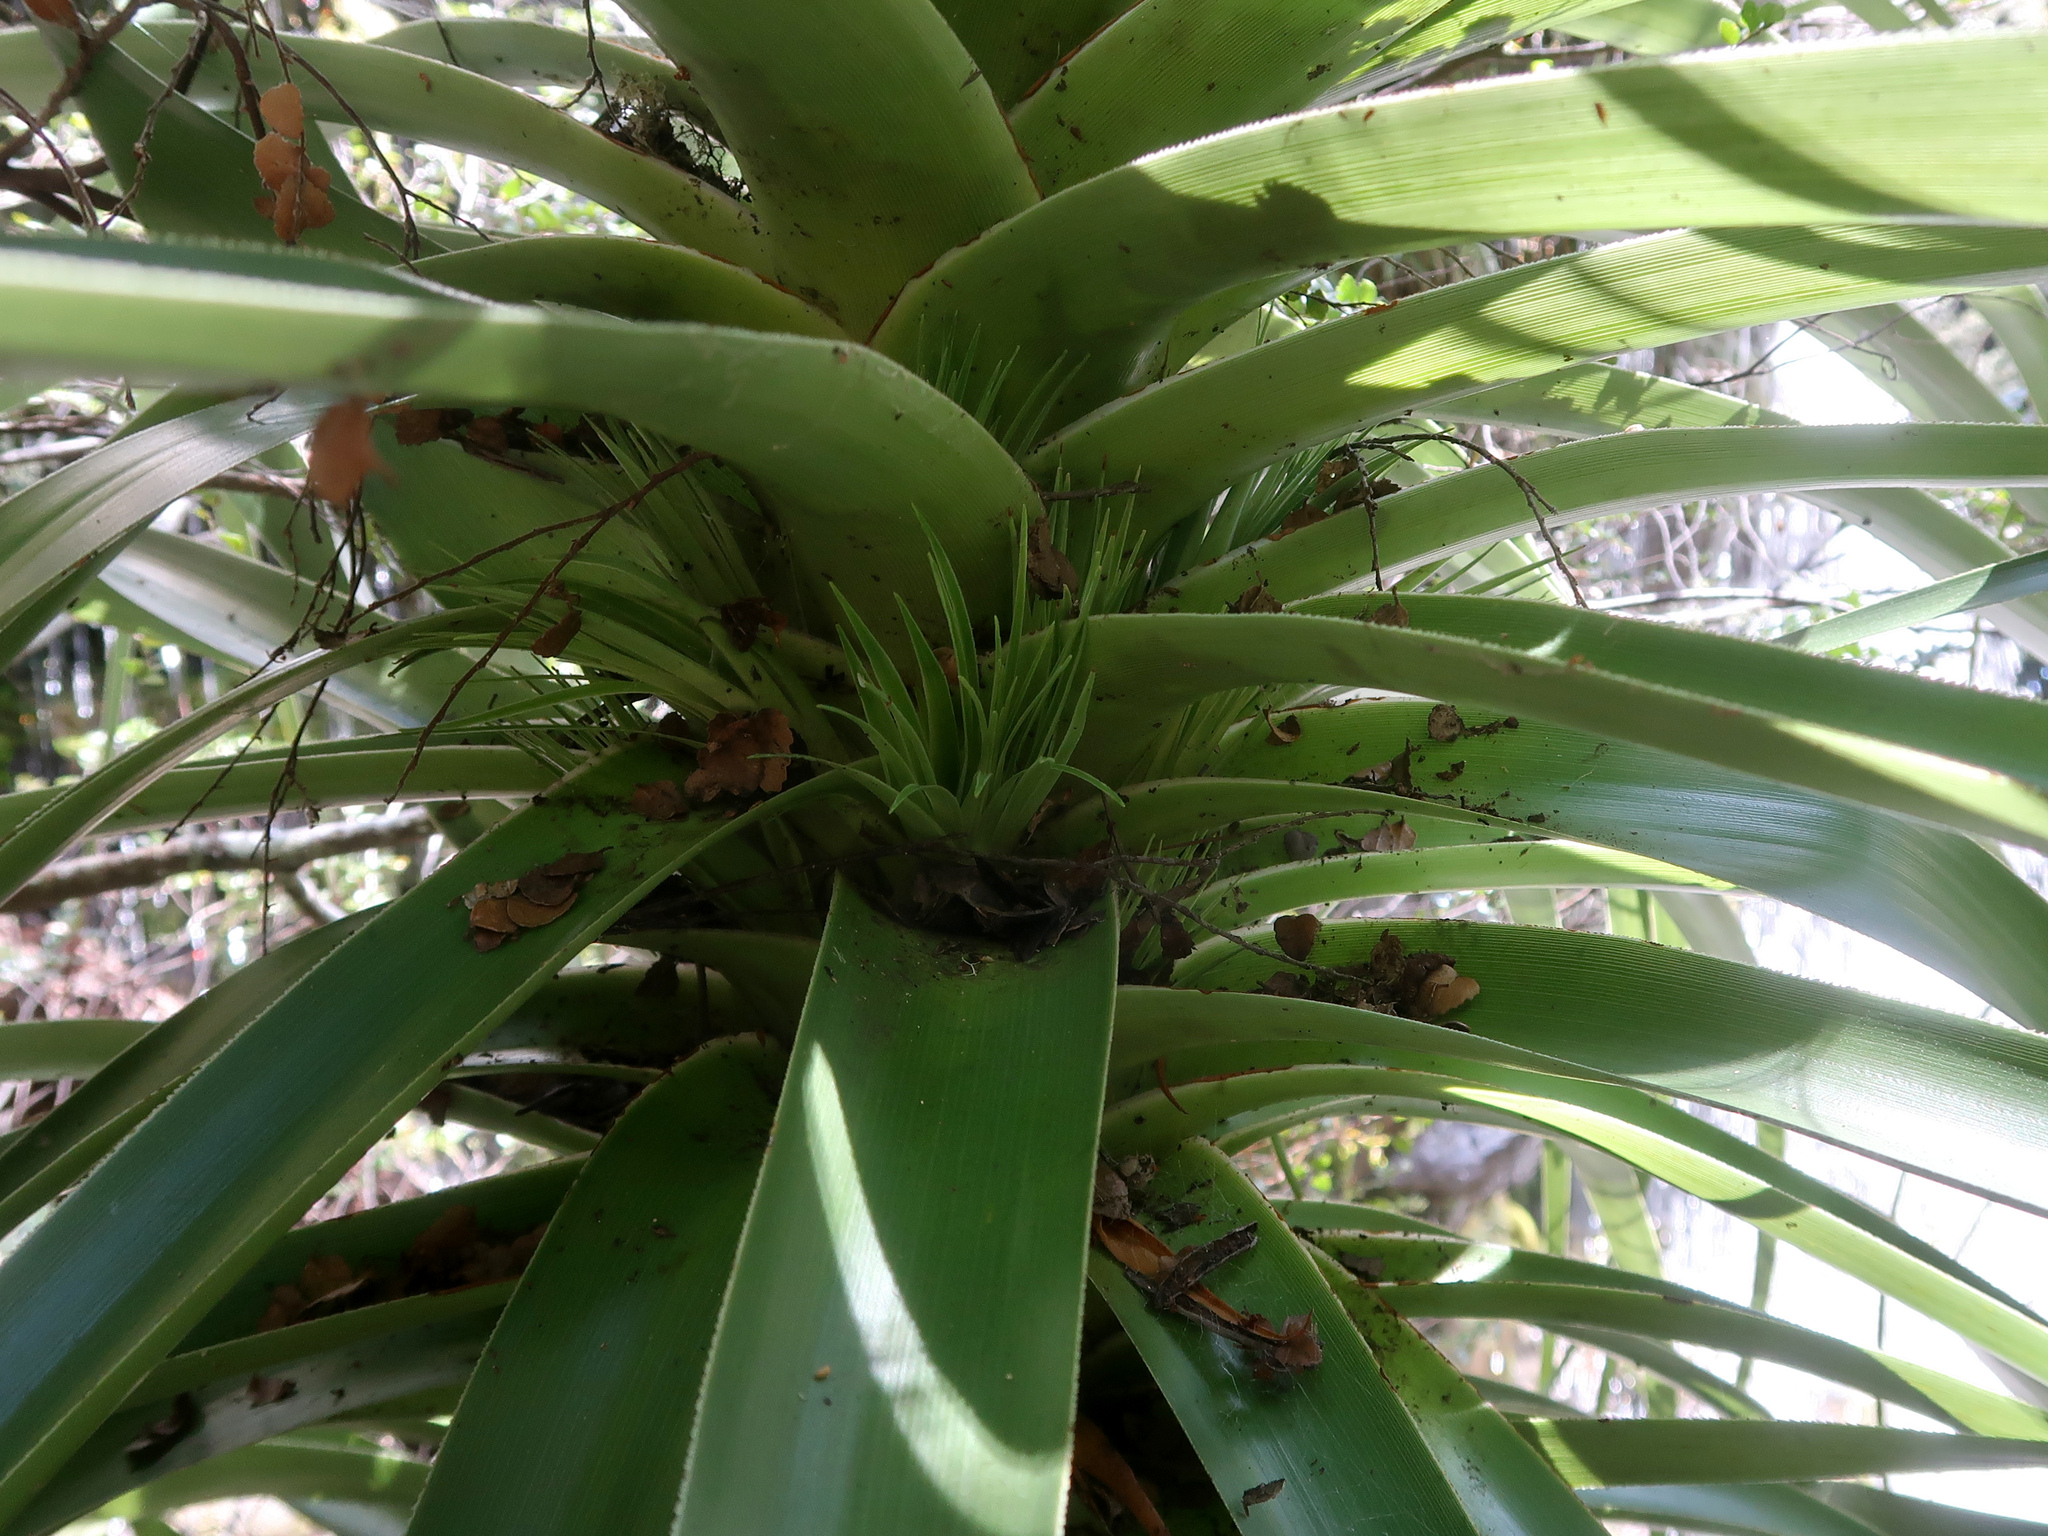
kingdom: Plantae
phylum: Tracheophyta
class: Magnoliopsida
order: Ericales
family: Ericaceae
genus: Dracophyllum
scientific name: Dracophyllum pandanifolium
